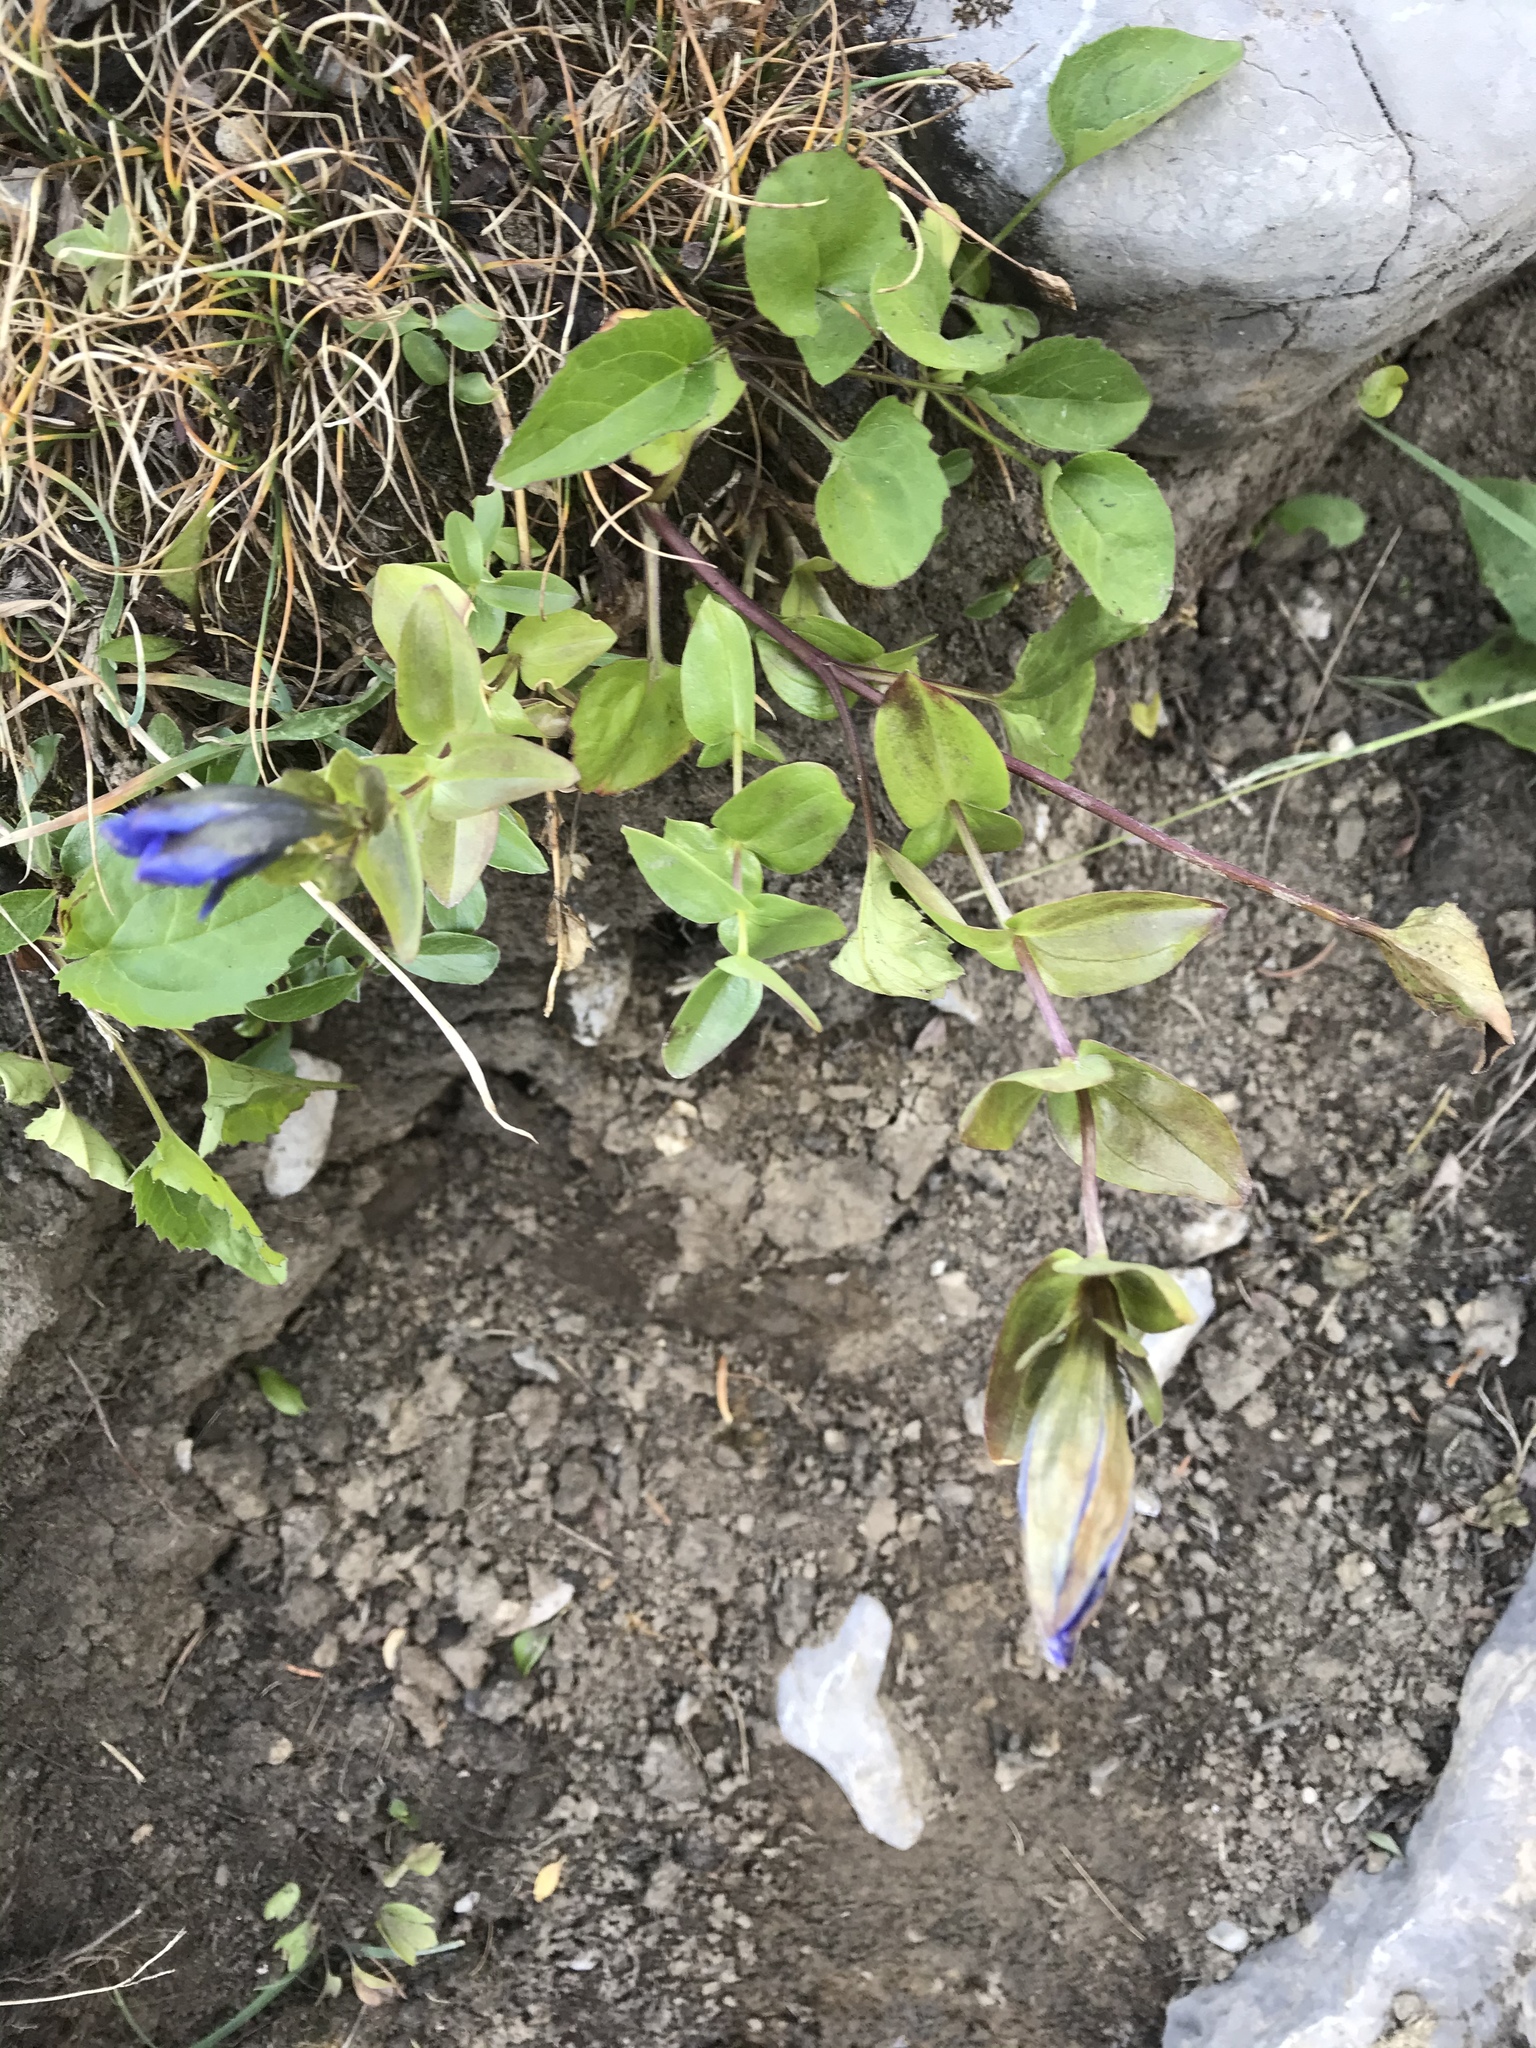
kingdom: Plantae
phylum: Tracheophyta
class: Magnoliopsida
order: Gentianales
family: Gentianaceae
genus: Gentiana
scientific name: Gentiana calycosa
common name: Rainier pleated gentian
